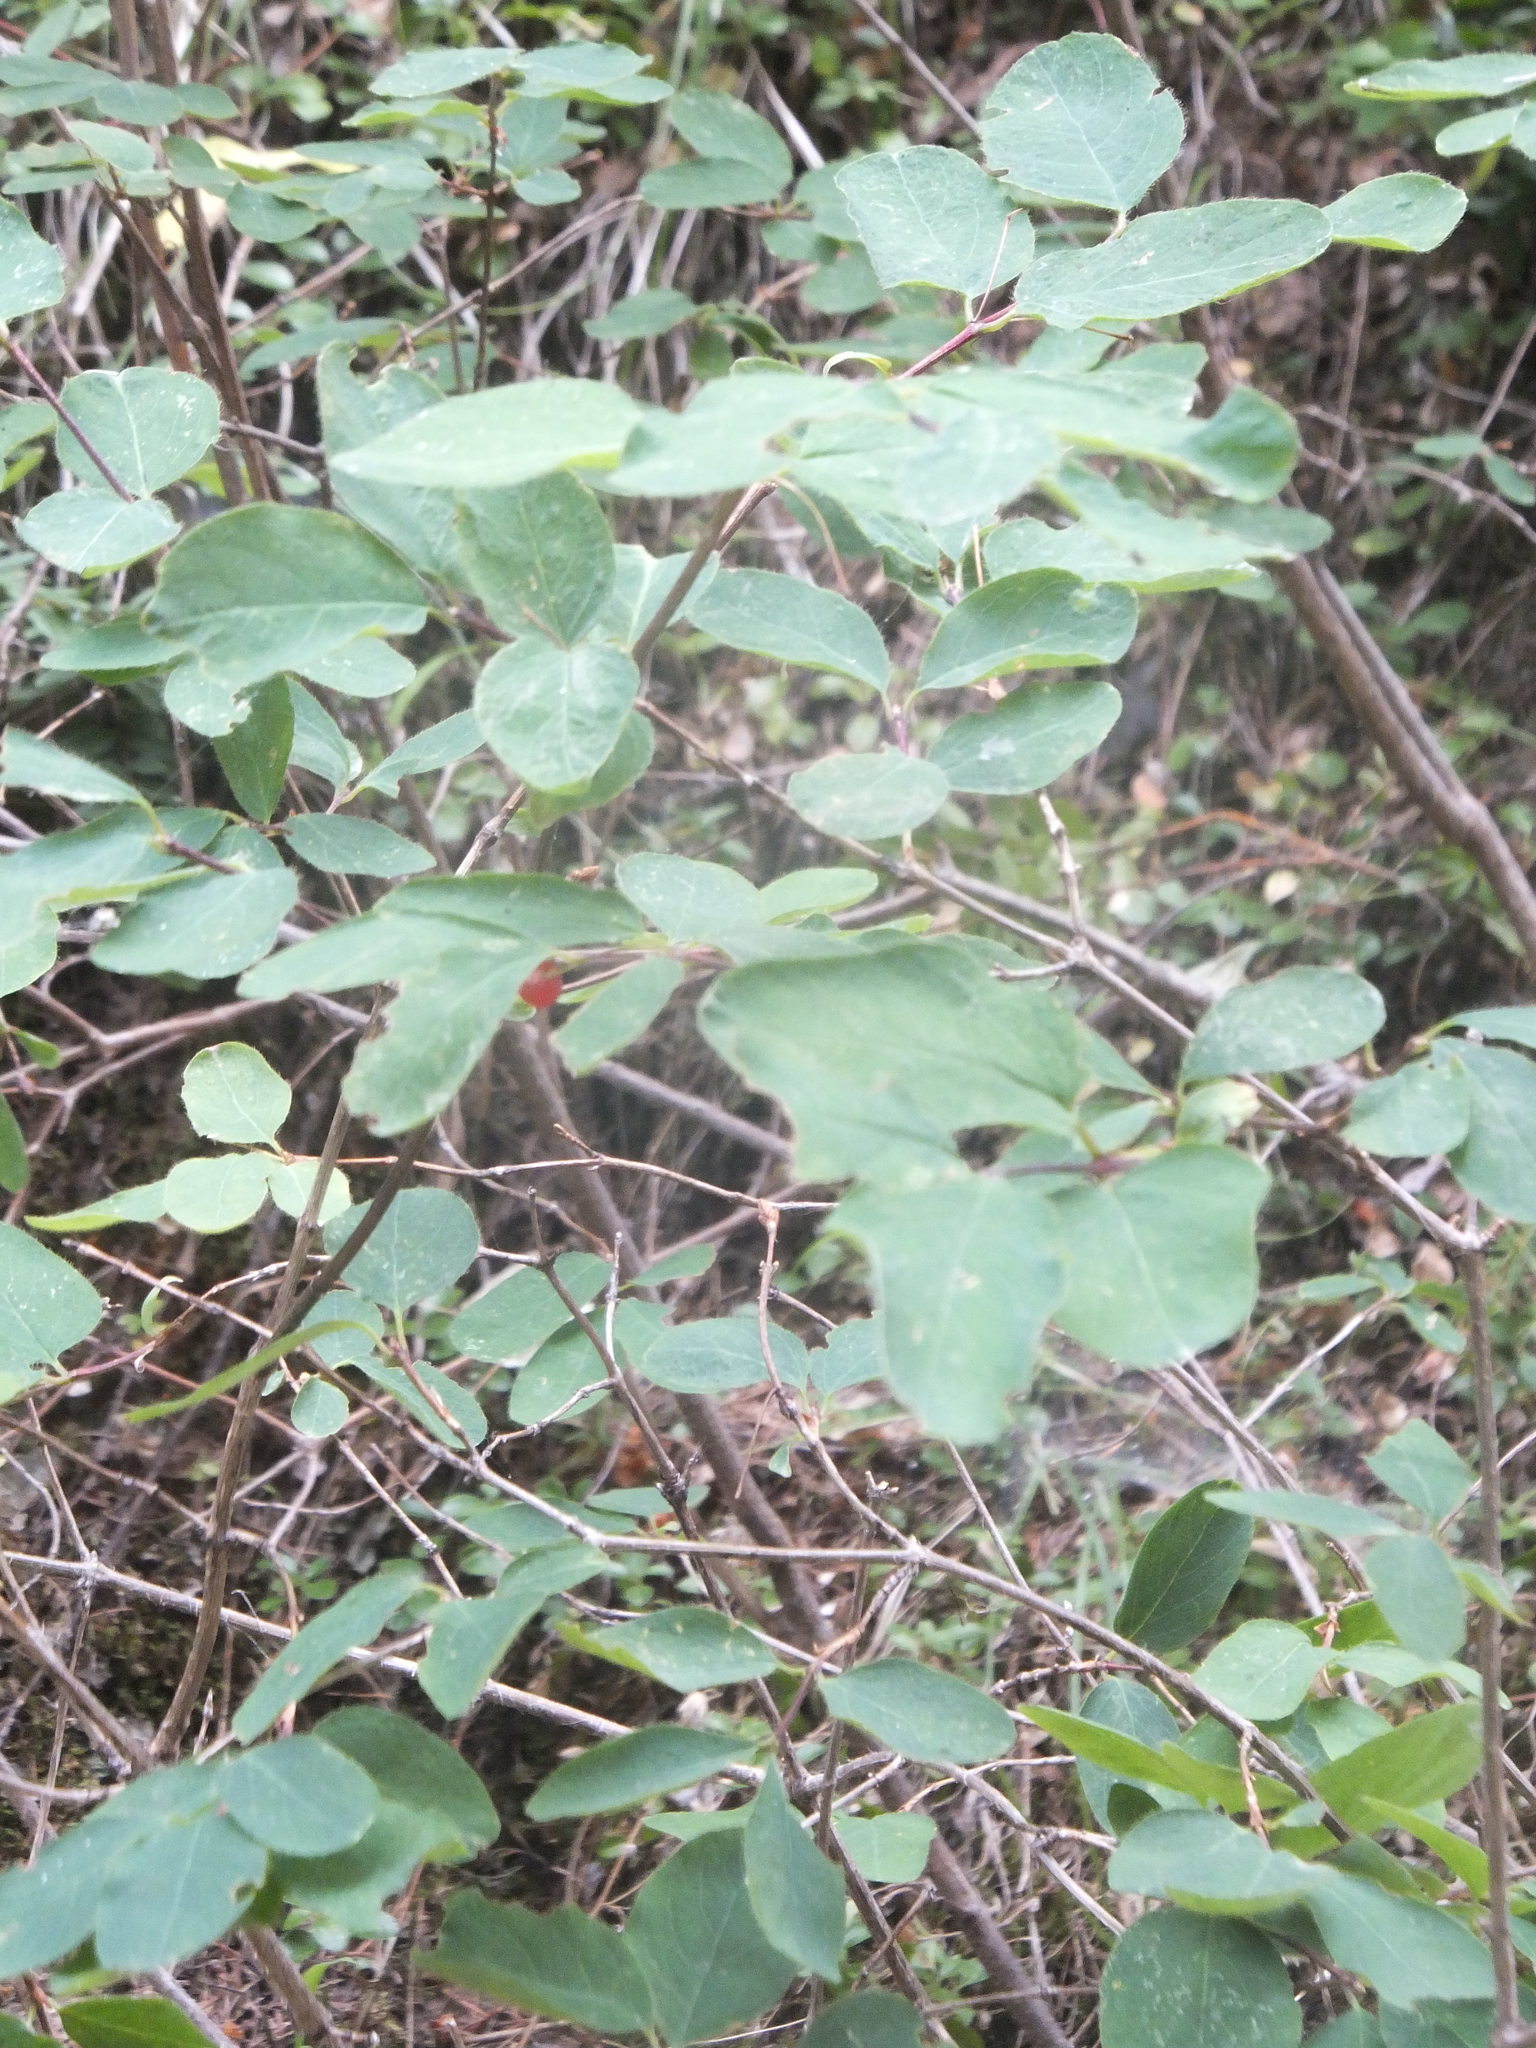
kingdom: Plantae
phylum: Tracheophyta
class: Magnoliopsida
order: Dipsacales
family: Caprifoliaceae
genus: Lonicera
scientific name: Lonicera utahensis
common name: Utah honeysuckle
